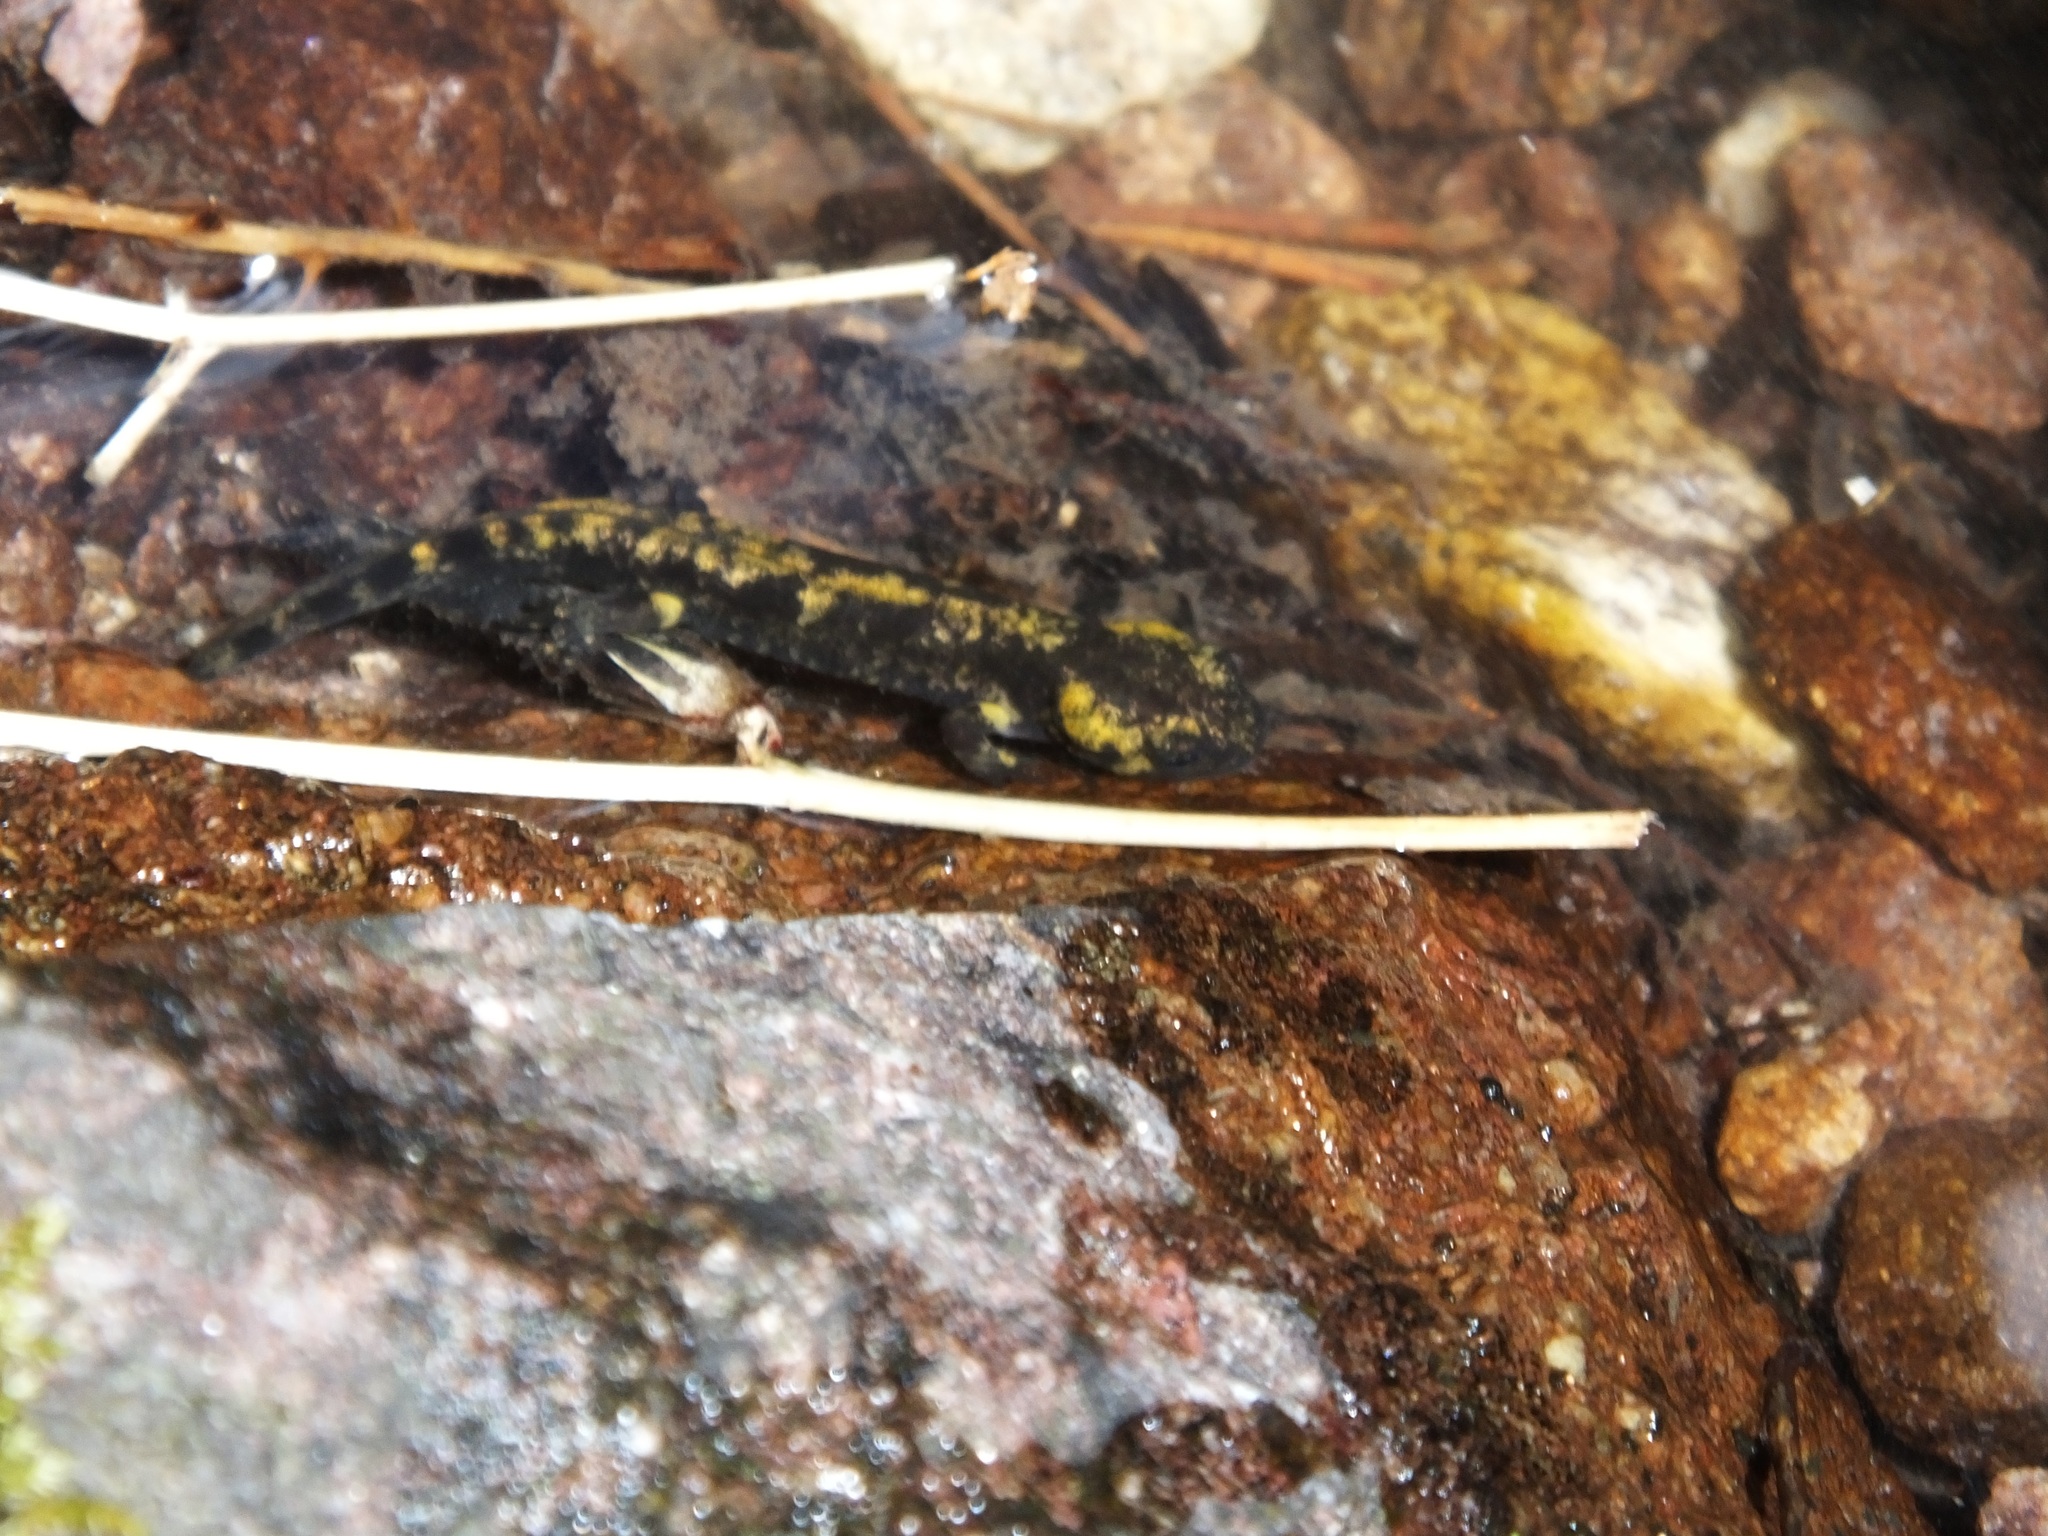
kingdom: Animalia
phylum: Chordata
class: Amphibia
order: Caudata
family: Salamandridae
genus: Salamandra
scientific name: Salamandra salamandra
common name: Fire salamander
